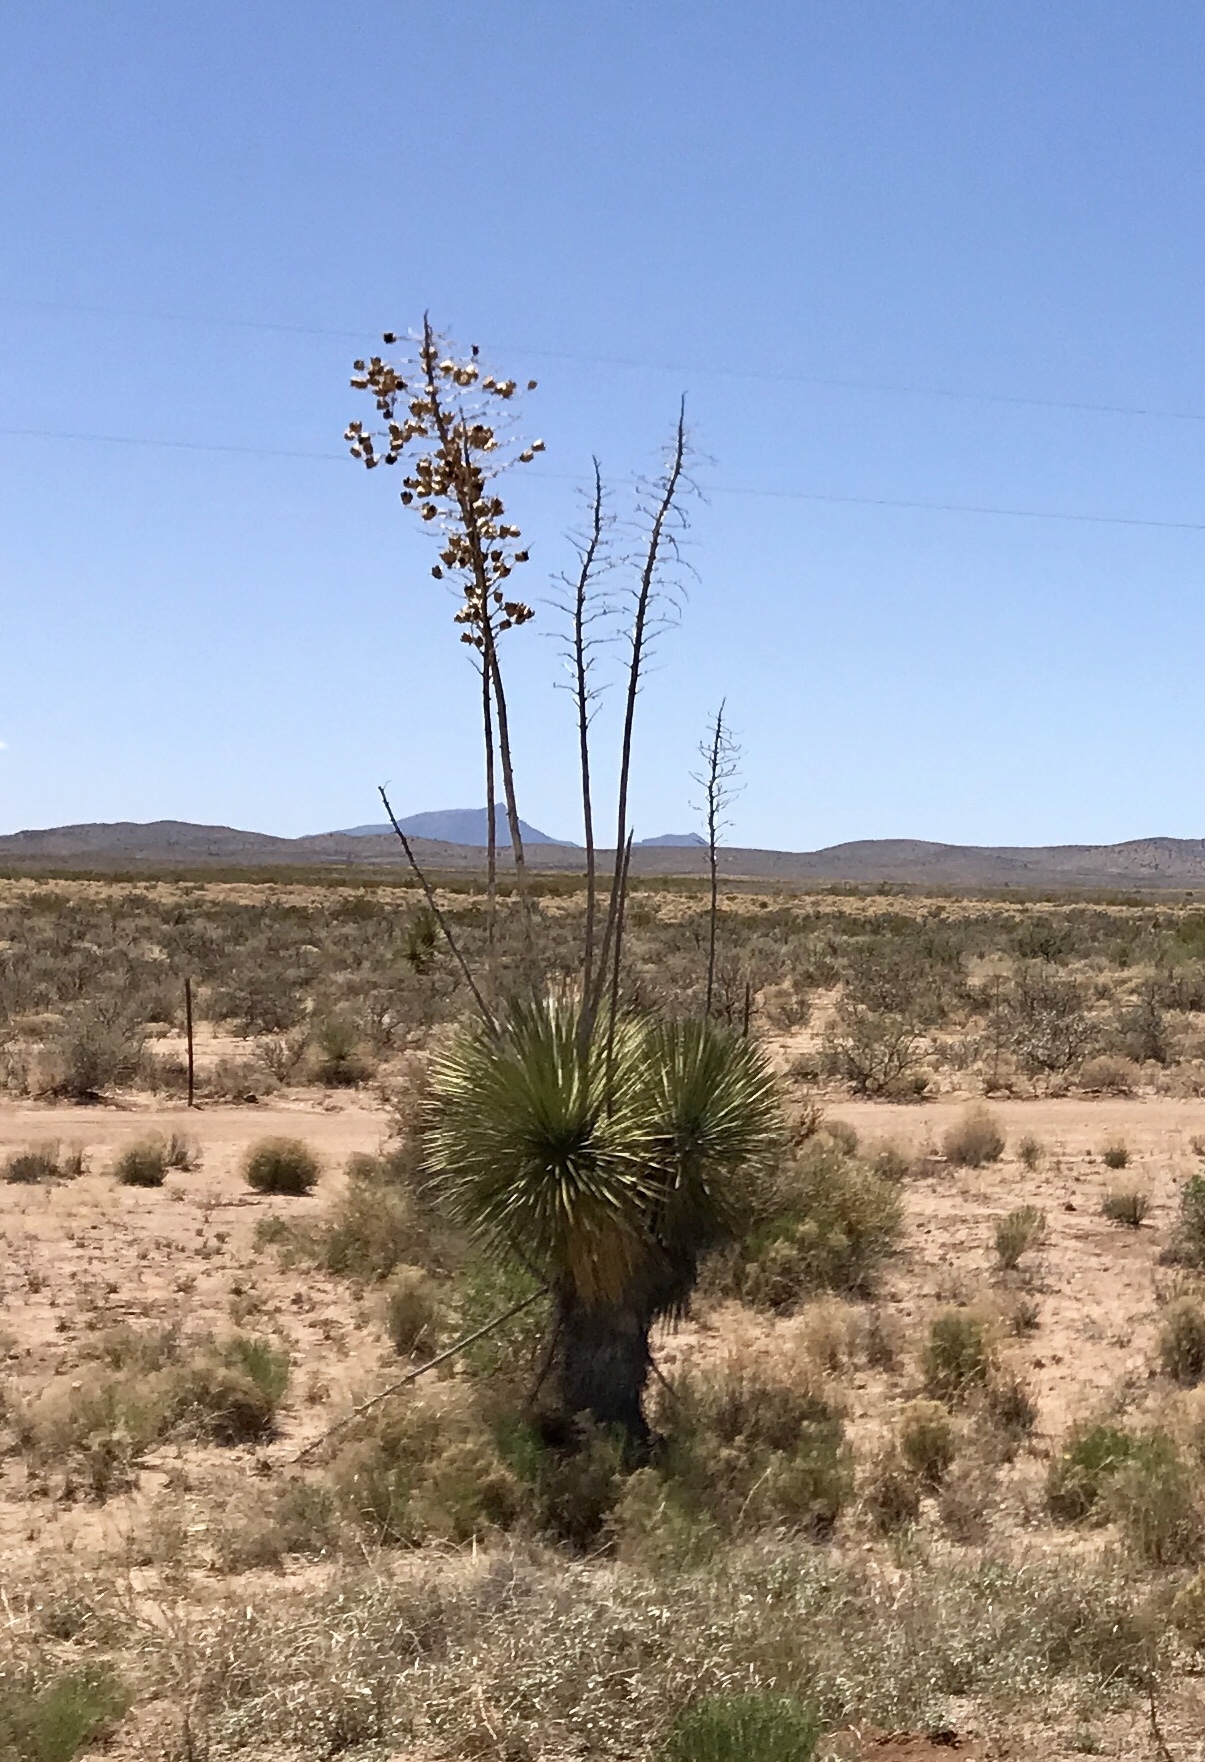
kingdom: Plantae
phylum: Tracheophyta
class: Liliopsida
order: Asparagales
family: Asparagaceae
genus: Yucca
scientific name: Yucca elata
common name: Palmella
